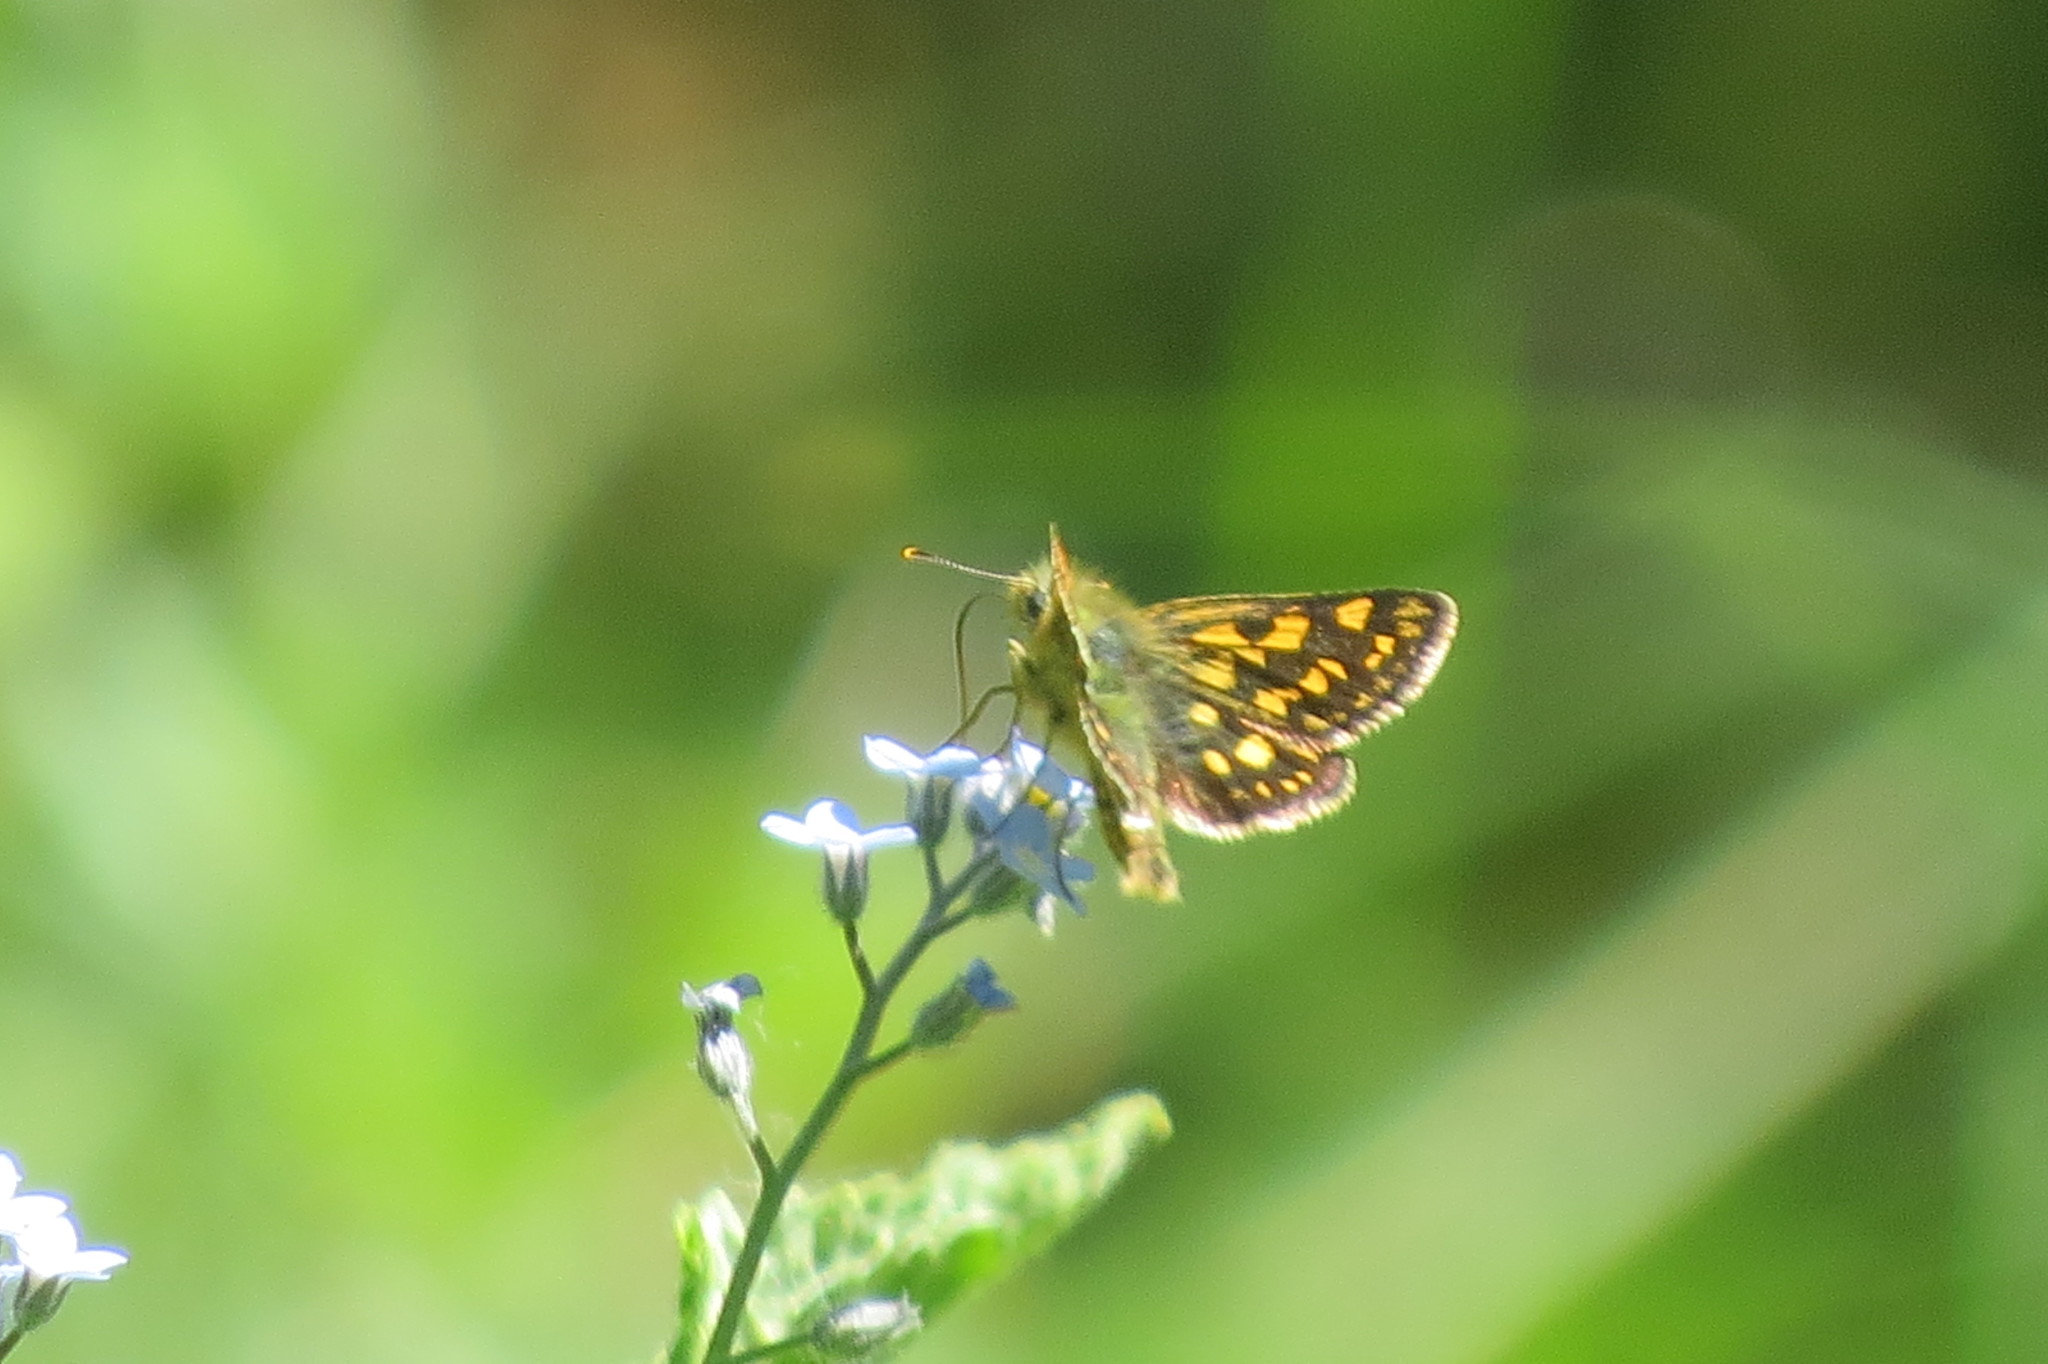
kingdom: Animalia
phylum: Arthropoda
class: Insecta
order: Lepidoptera
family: Hesperiidae
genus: Carterocephalus
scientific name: Carterocephalus palaemon
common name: Chequered skipper
